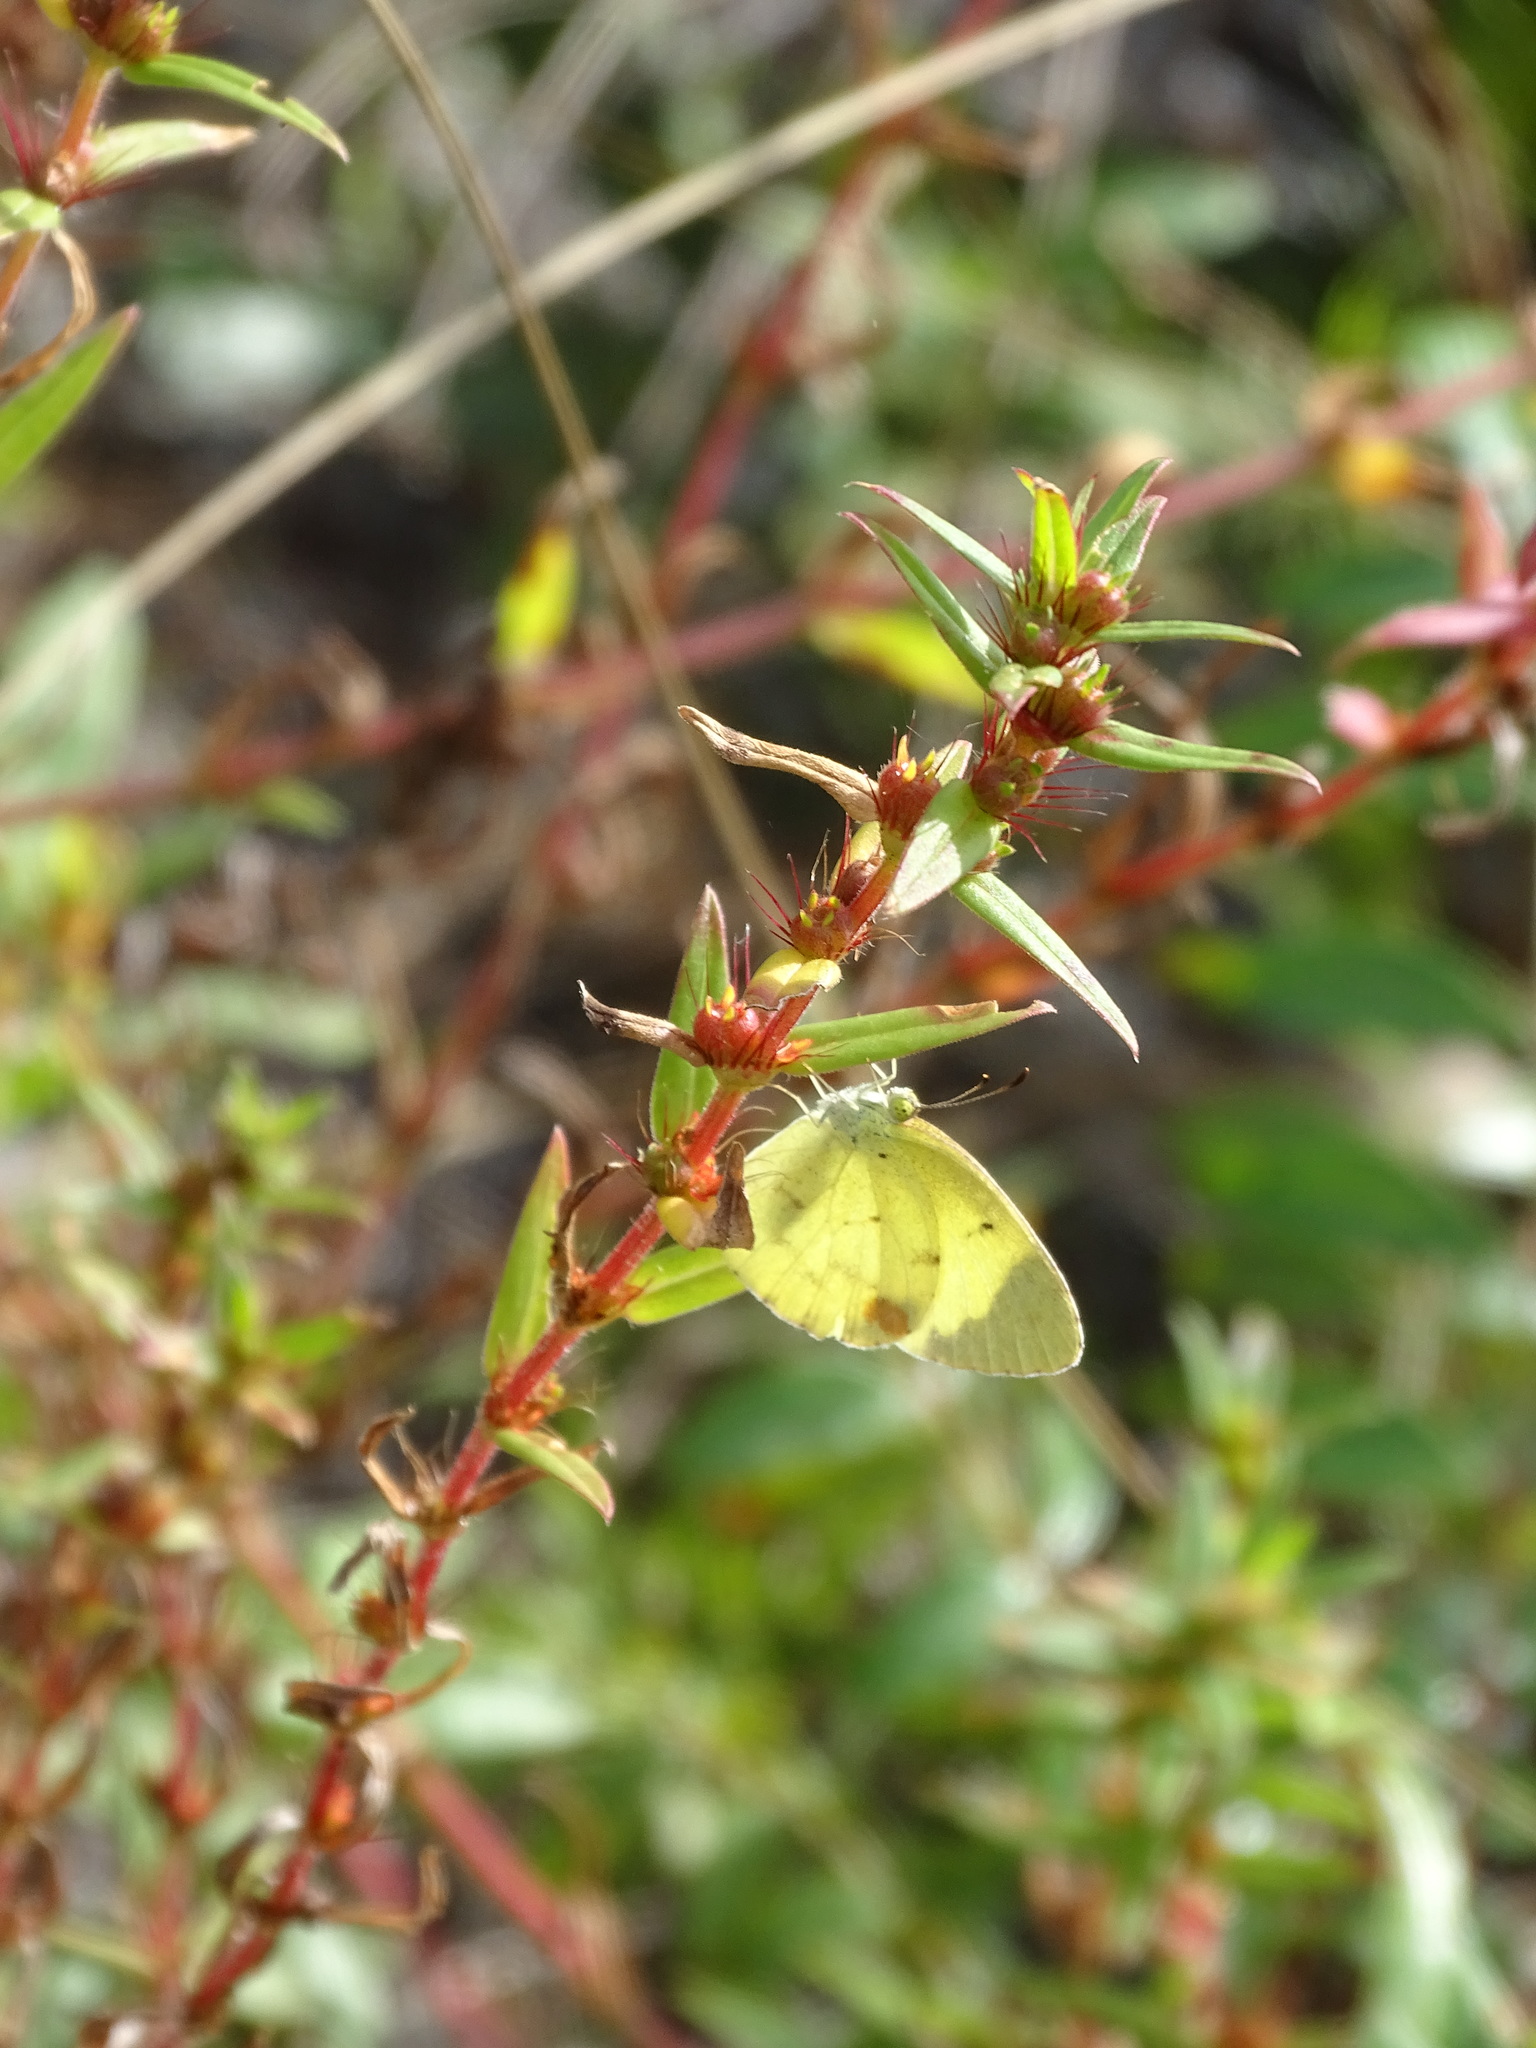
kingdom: Animalia
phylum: Arthropoda
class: Insecta
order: Lepidoptera
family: Pieridae
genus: Pyrisitia
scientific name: Pyrisitia lisa
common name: Little yellow
